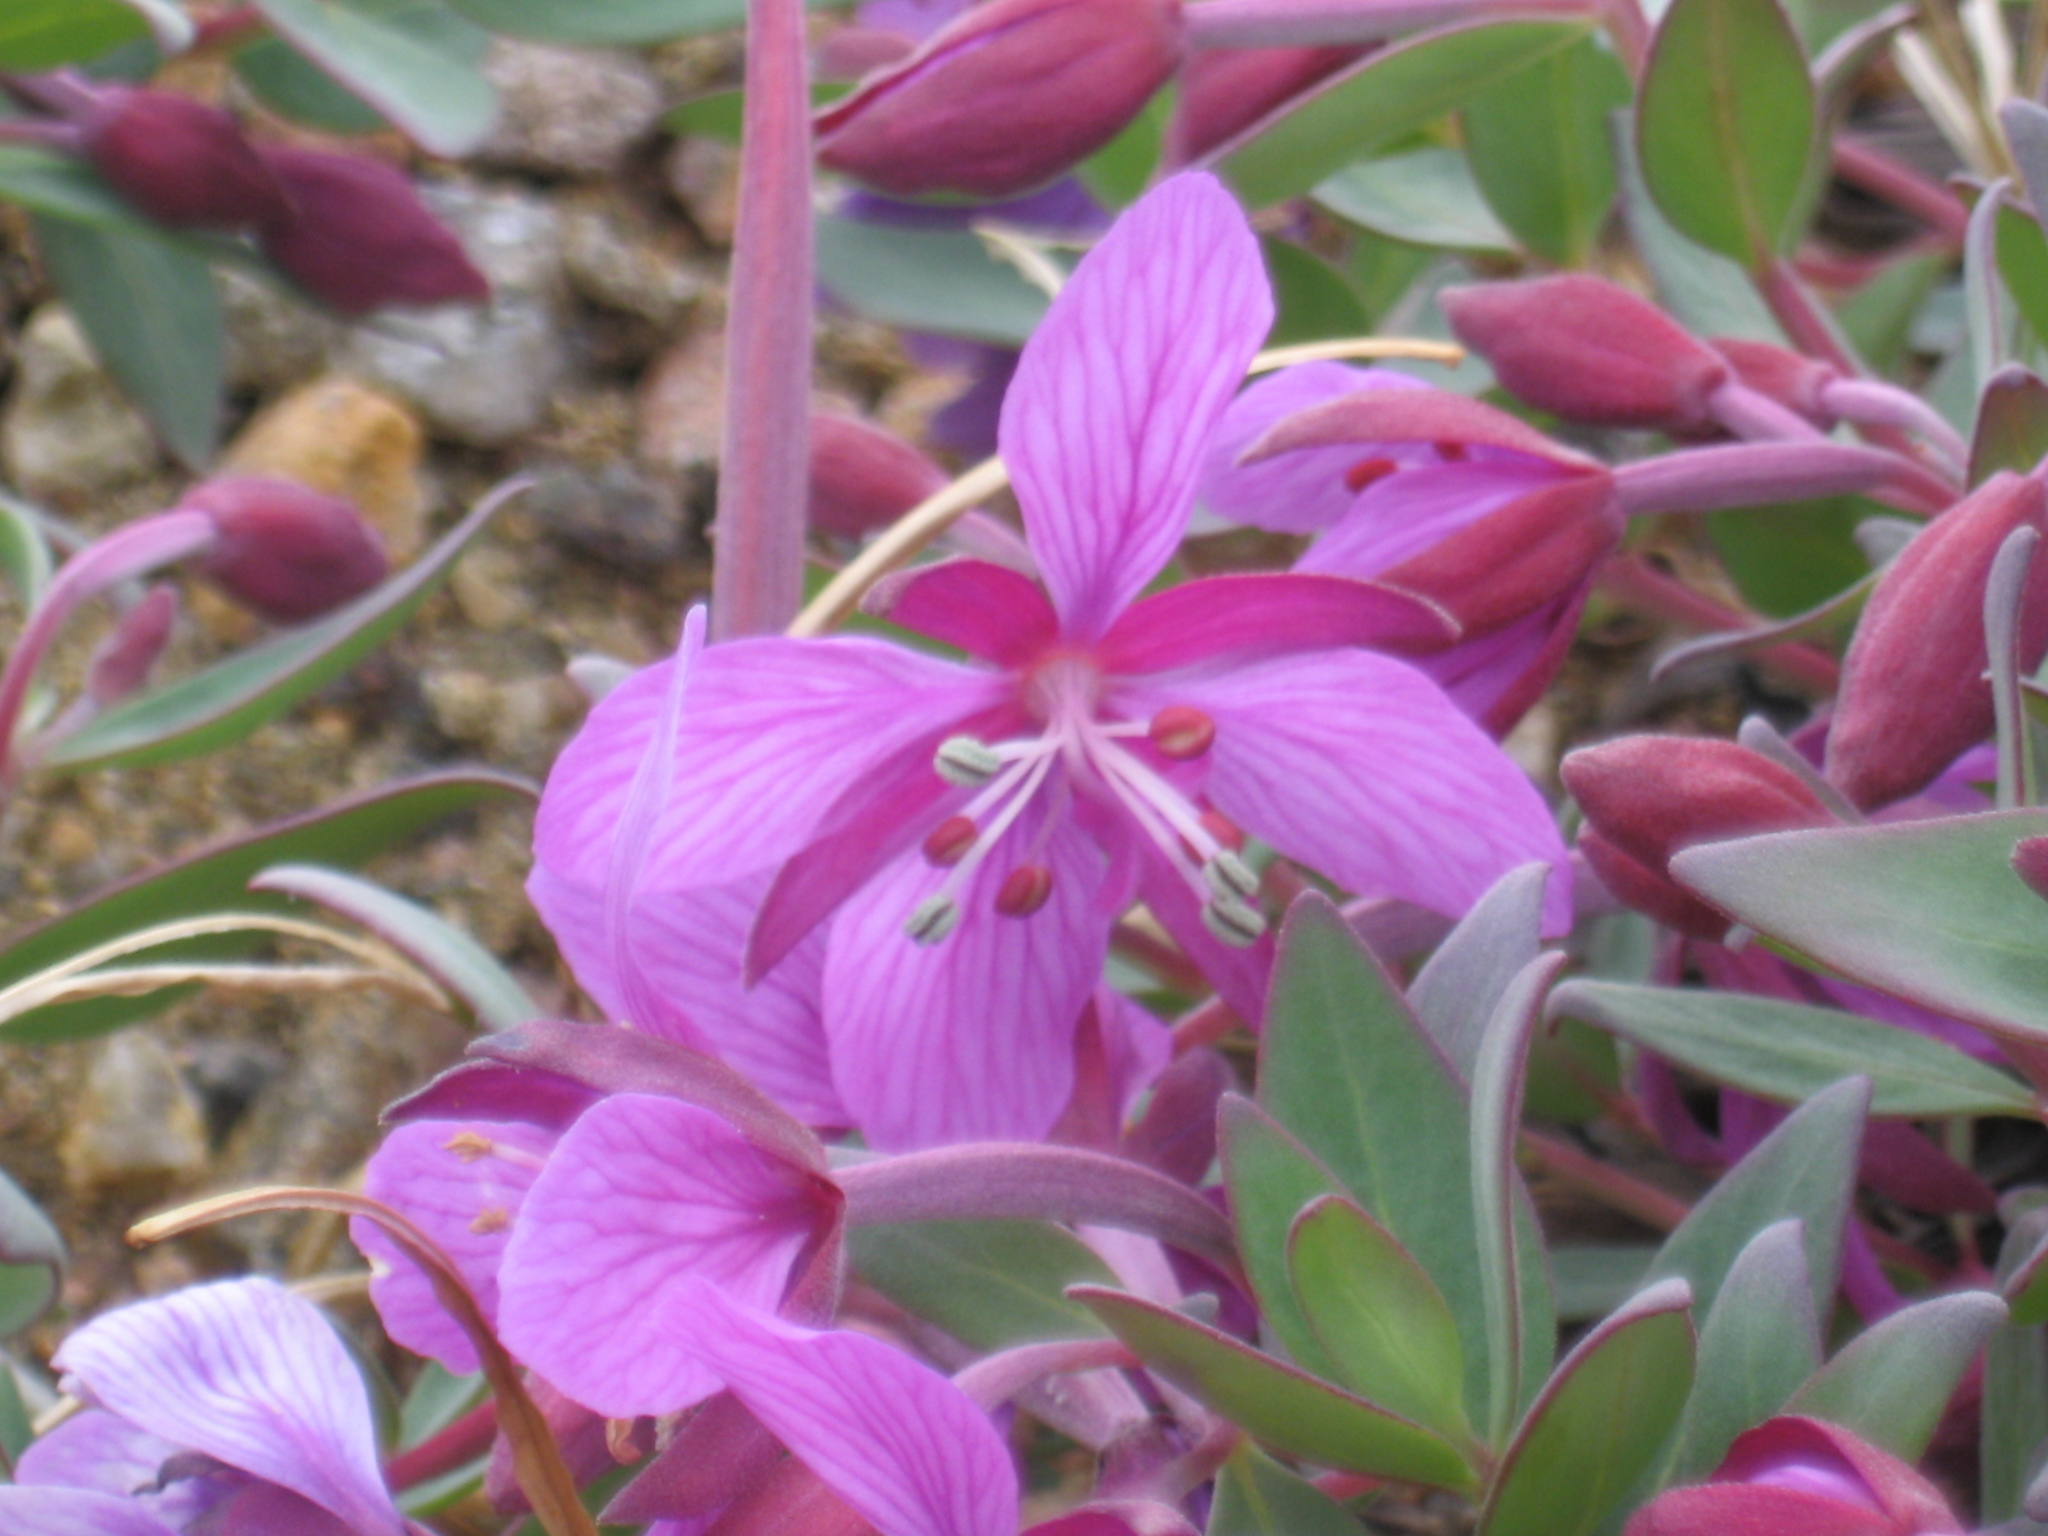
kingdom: Plantae
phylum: Tracheophyta
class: Magnoliopsida
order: Myrtales
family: Onagraceae
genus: Chamaenerion
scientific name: Chamaenerion latifolium
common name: Dwarf fireweed
